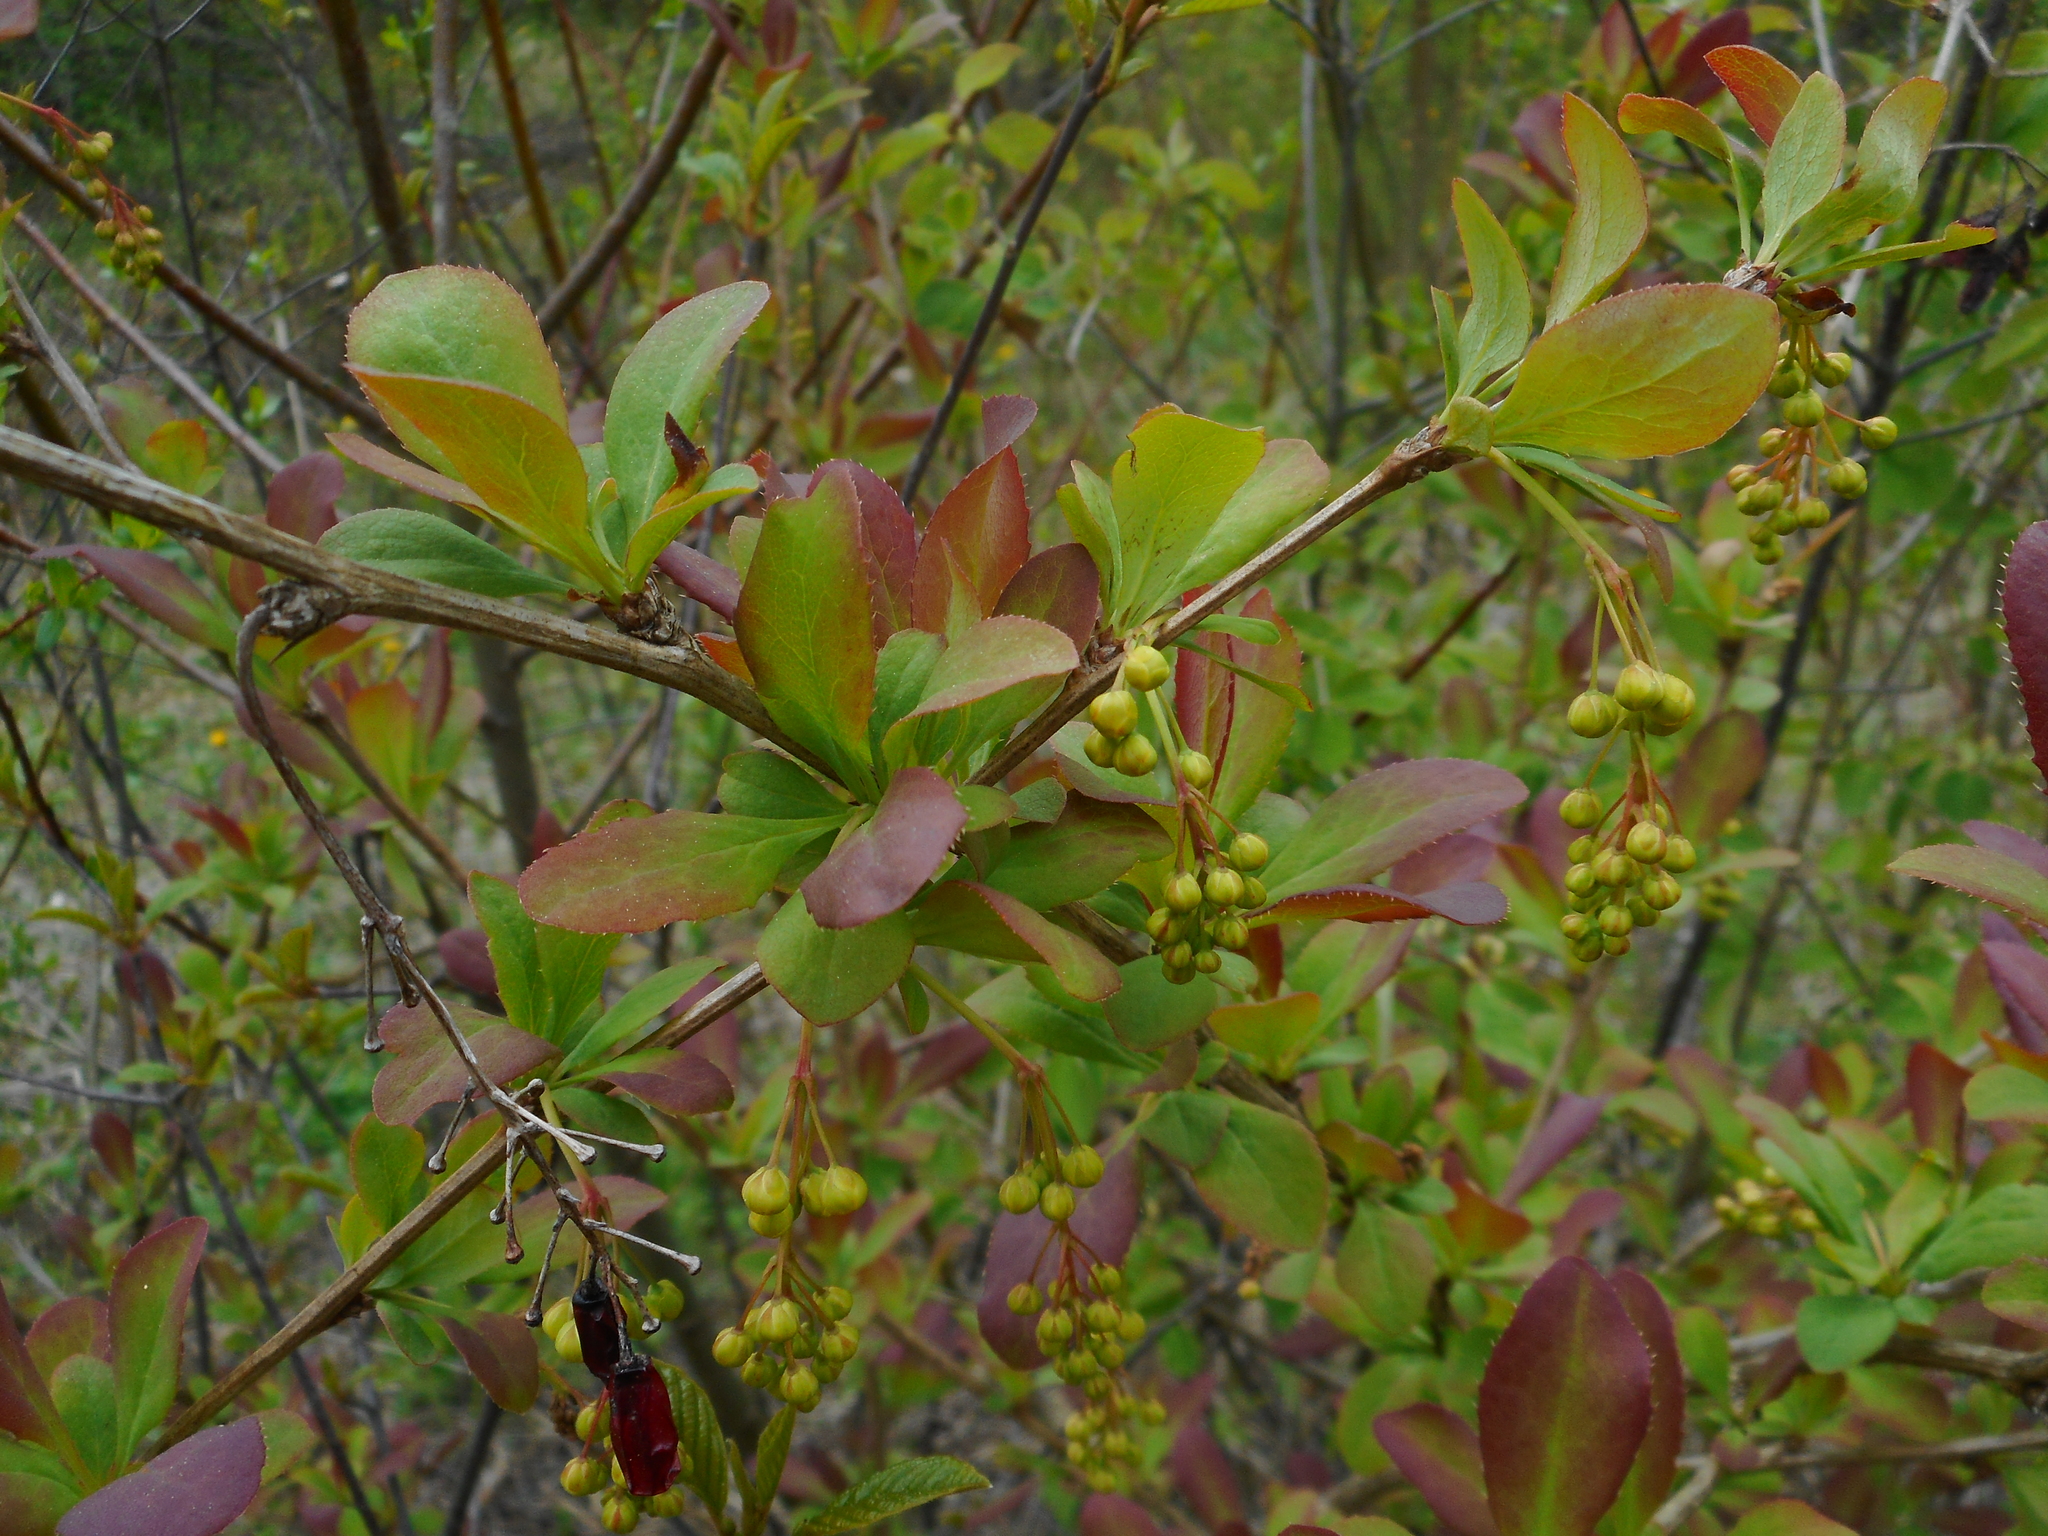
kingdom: Plantae
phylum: Tracheophyta
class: Magnoliopsida
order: Ranunculales
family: Berberidaceae
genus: Berberis
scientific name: Berberis vulgaris
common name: Barberry
